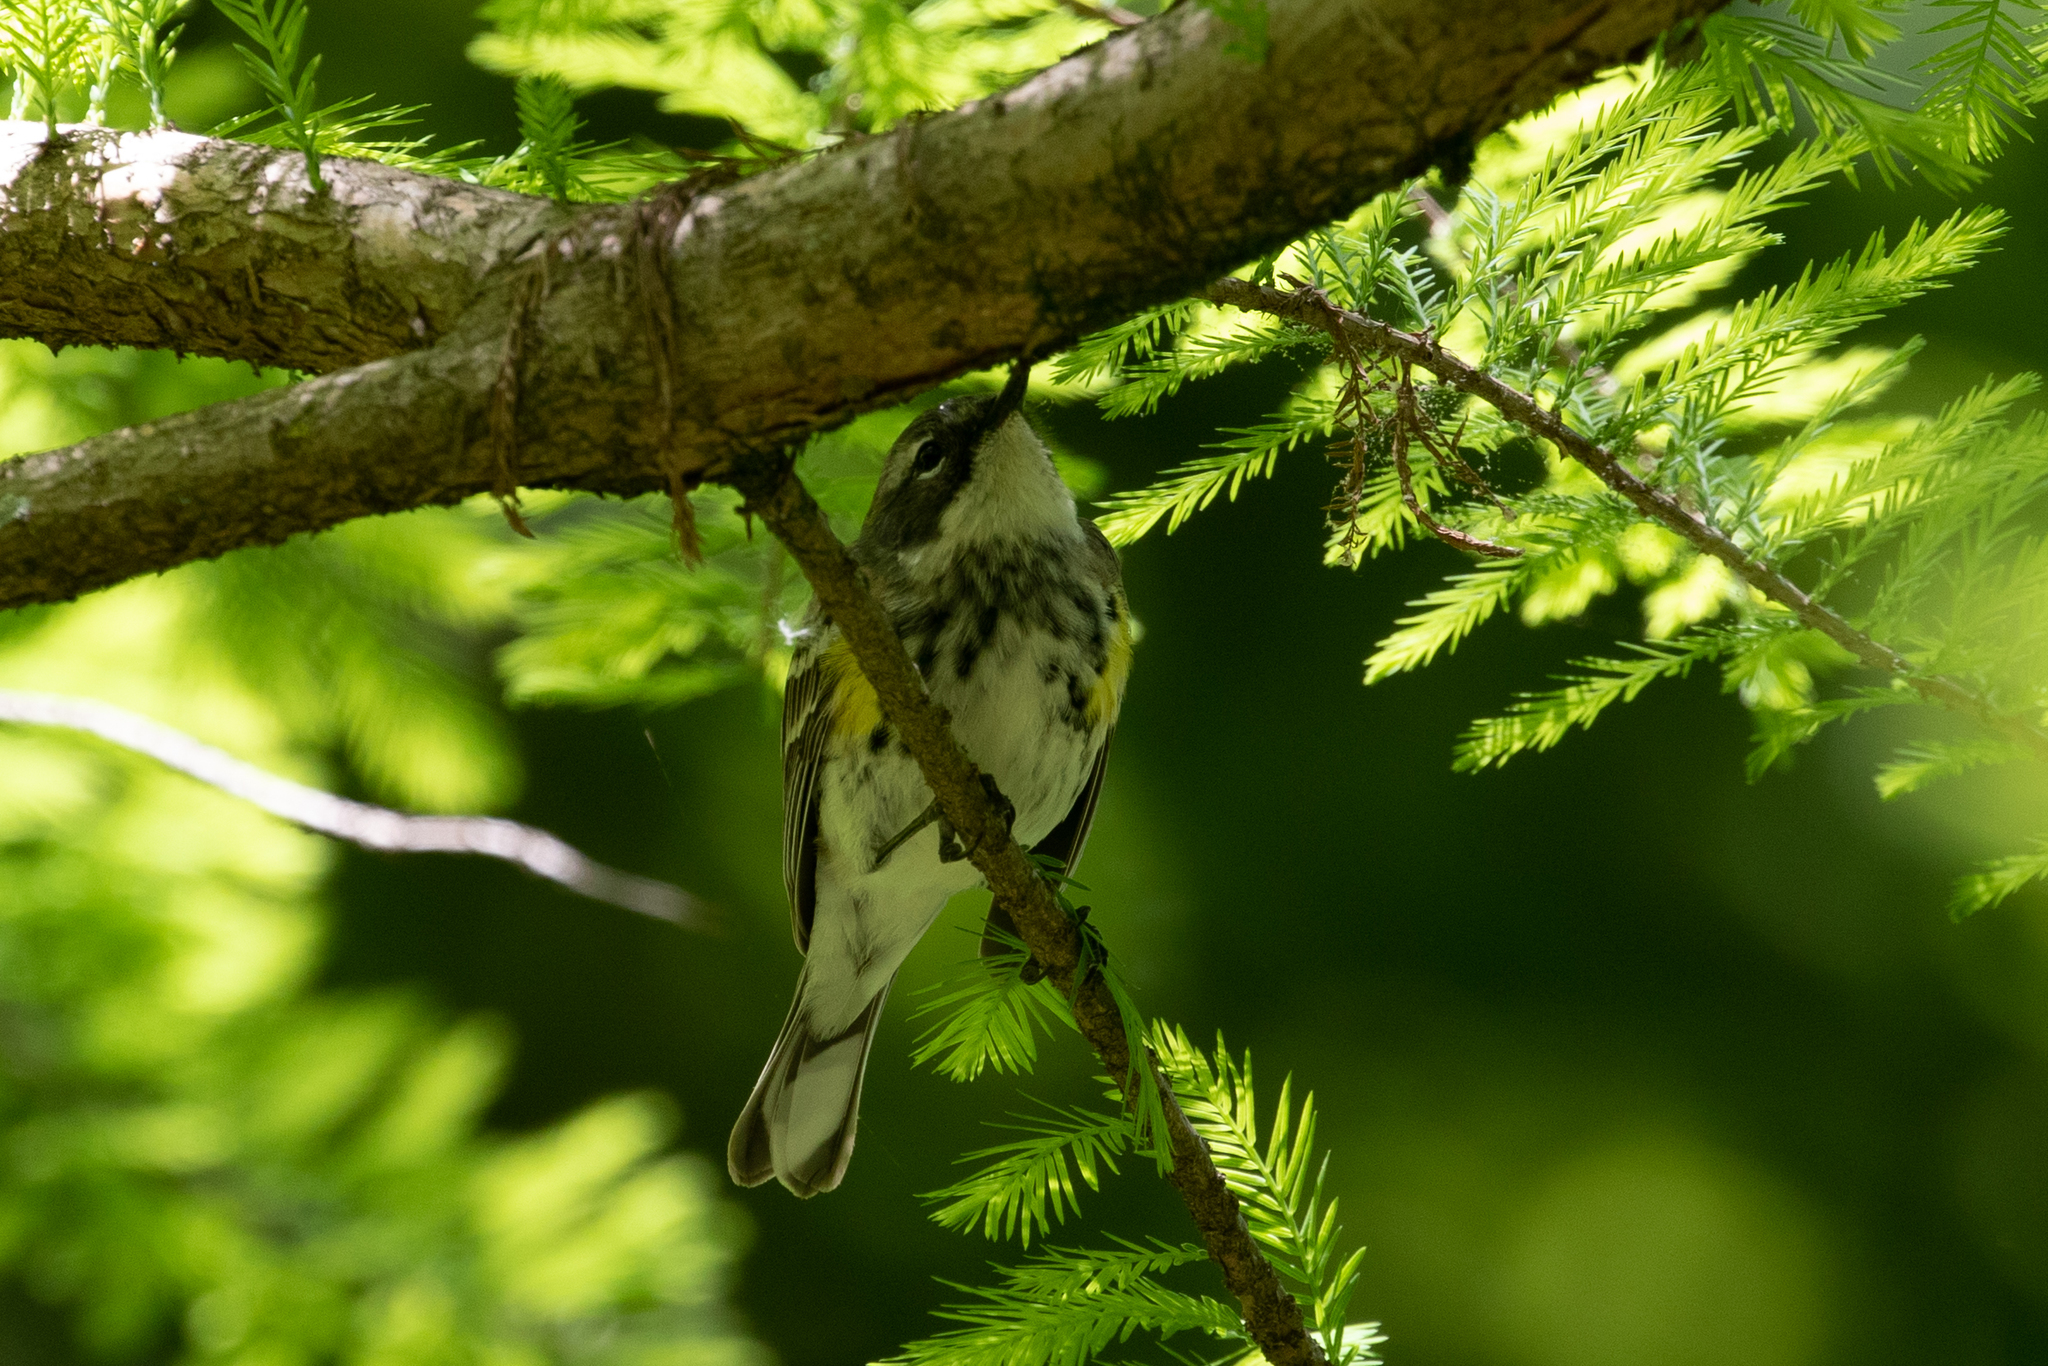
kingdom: Animalia
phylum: Chordata
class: Aves
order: Passeriformes
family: Parulidae
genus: Setophaga
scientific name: Setophaga coronata
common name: Myrtle warbler
